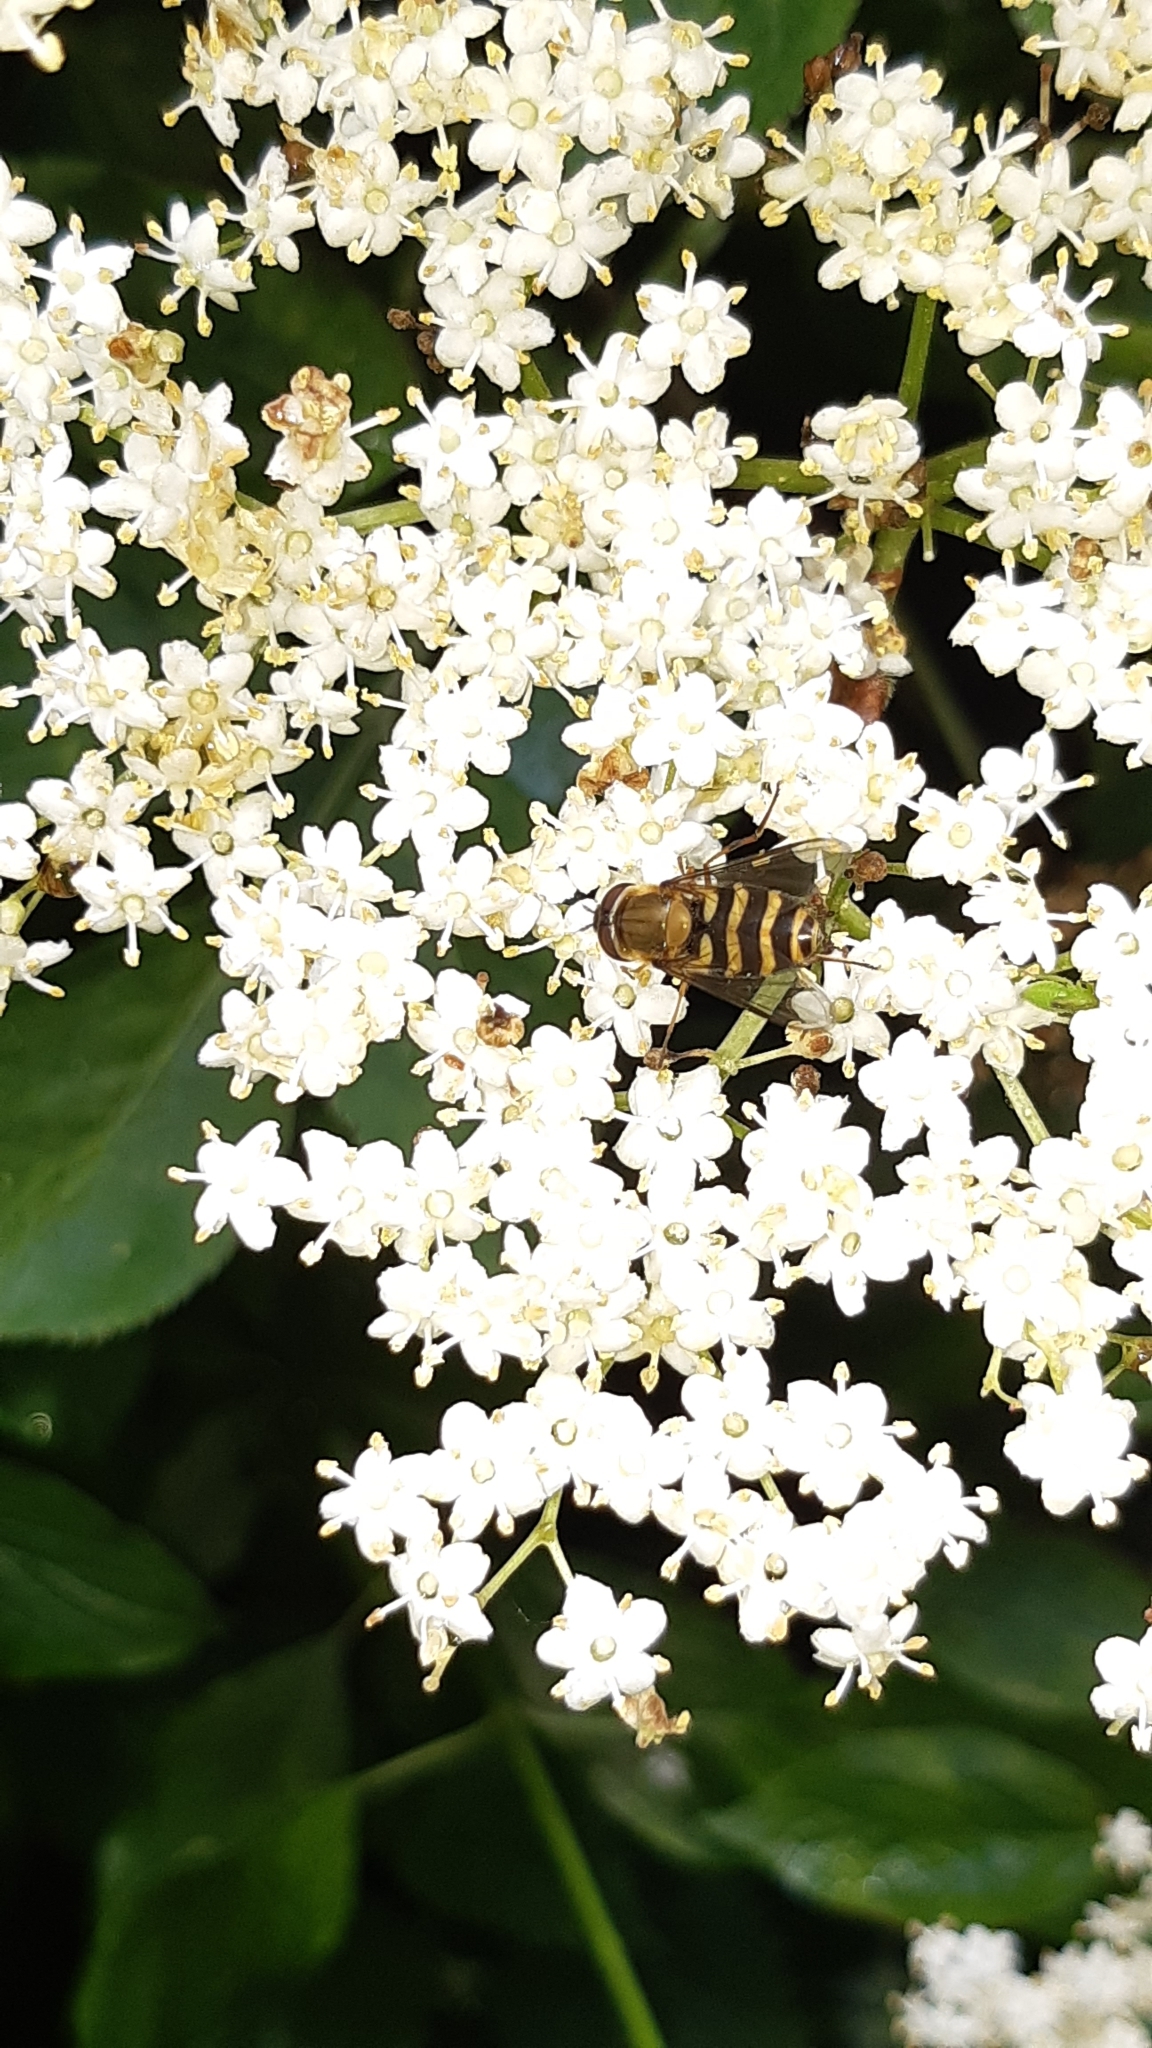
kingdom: Animalia
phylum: Arthropoda
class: Insecta
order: Diptera
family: Syrphidae
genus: Syrphus
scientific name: Syrphus
